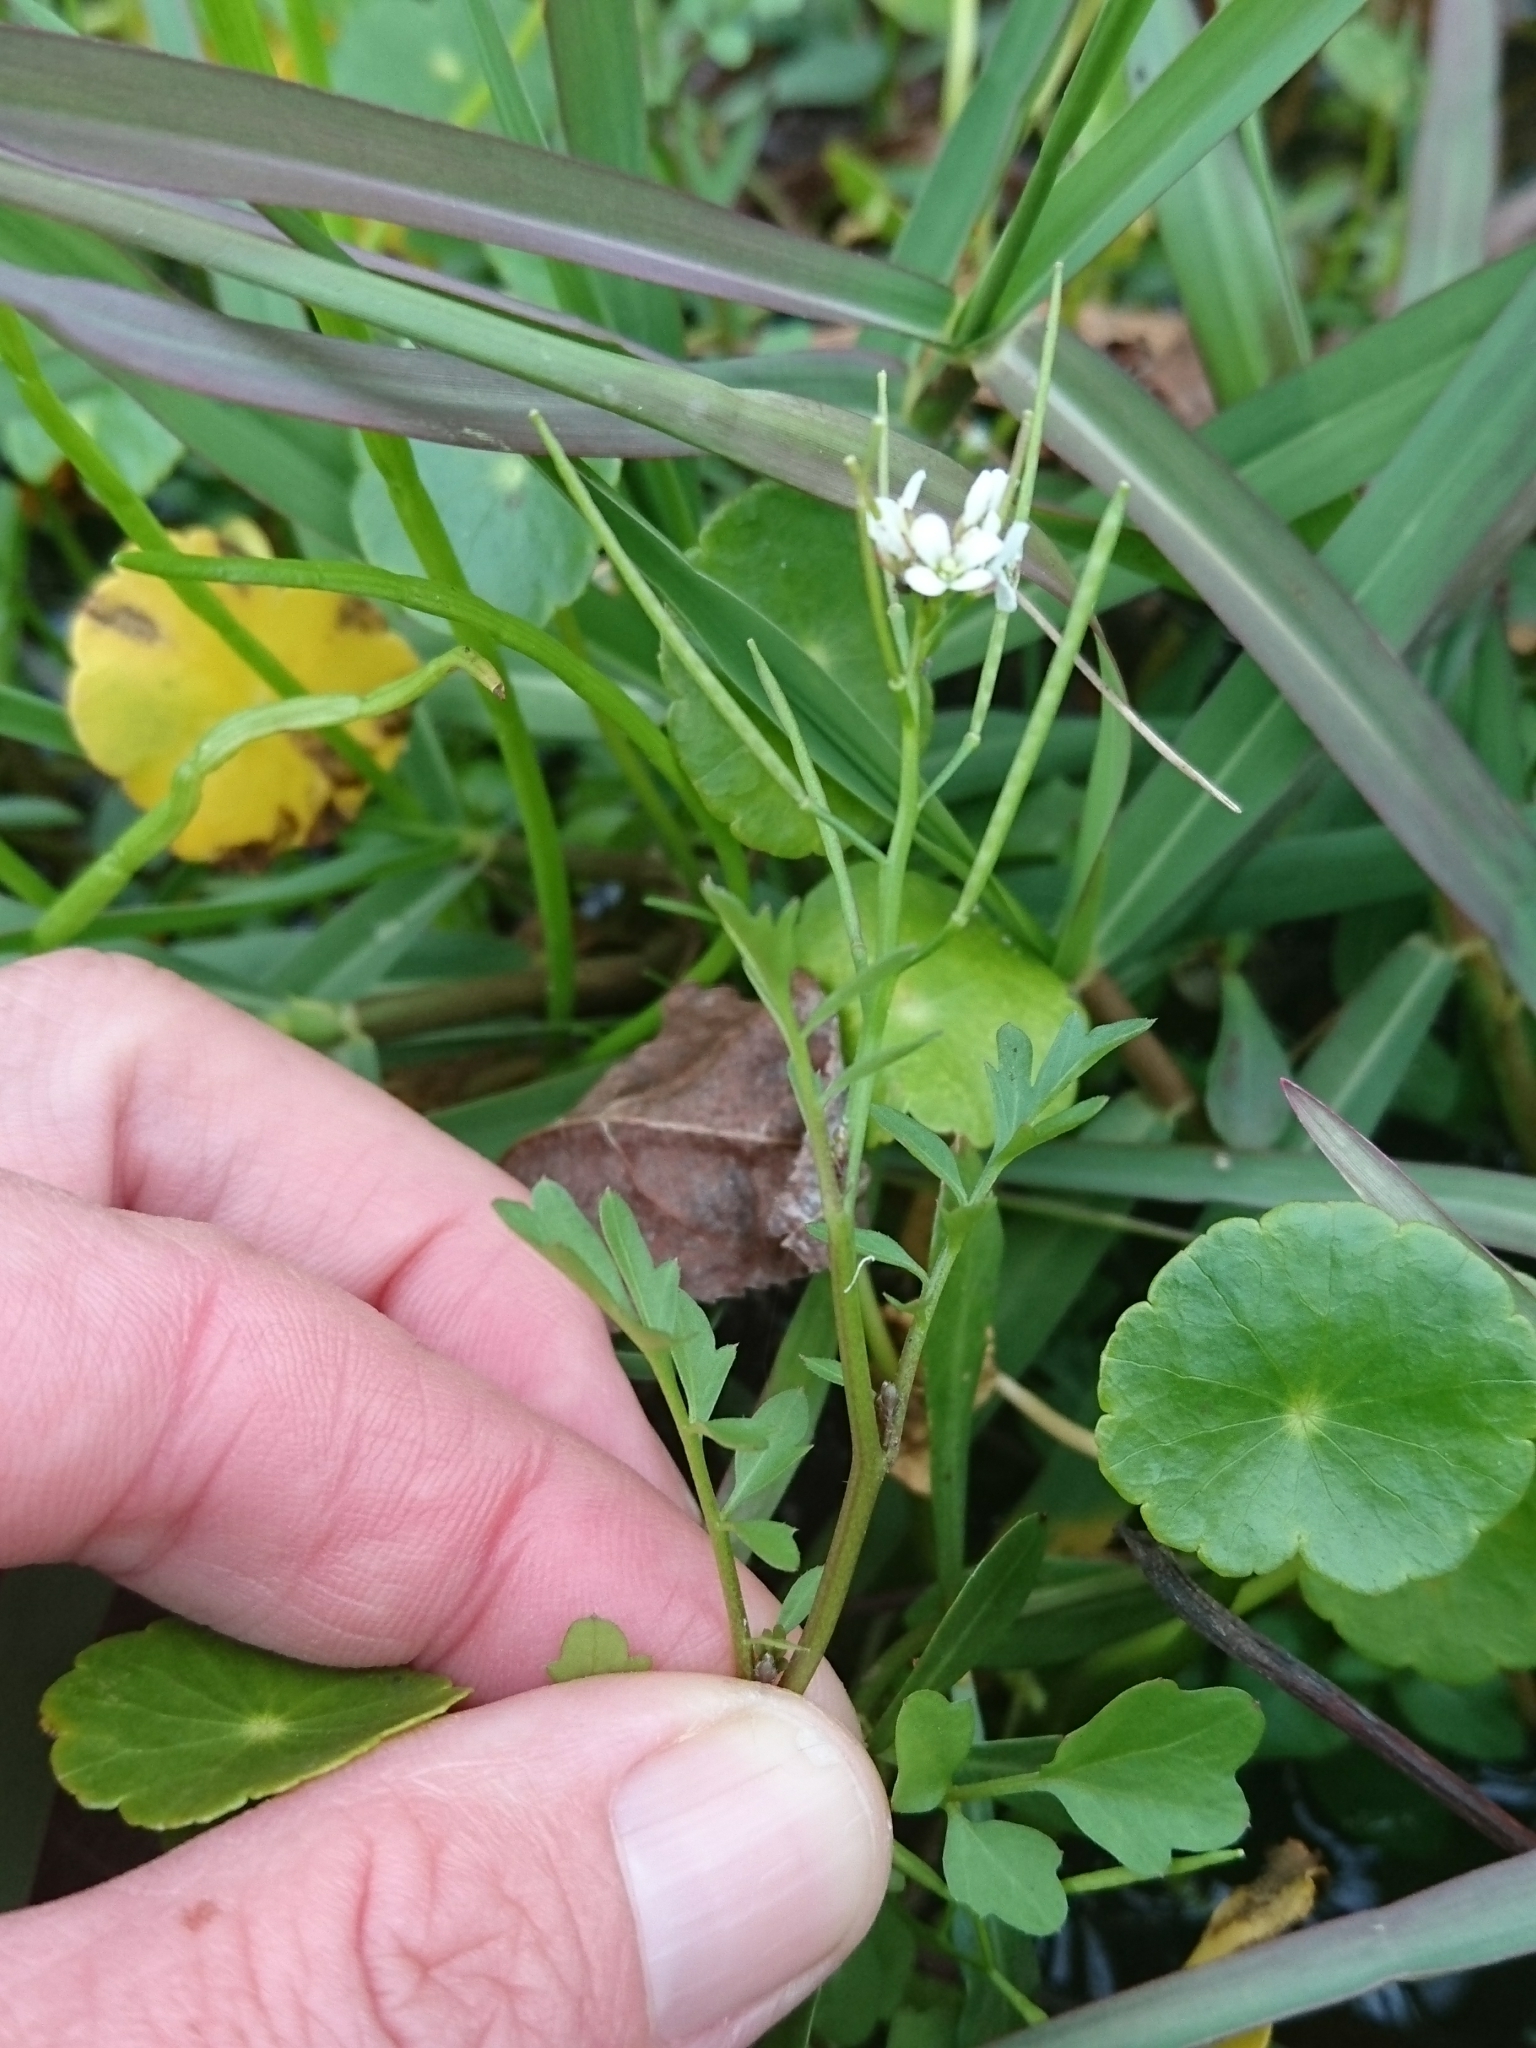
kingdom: Plantae
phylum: Tracheophyta
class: Magnoliopsida
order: Brassicales
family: Brassicaceae
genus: Cardamine
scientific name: Cardamine occulta
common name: Asian wavy bittercress
